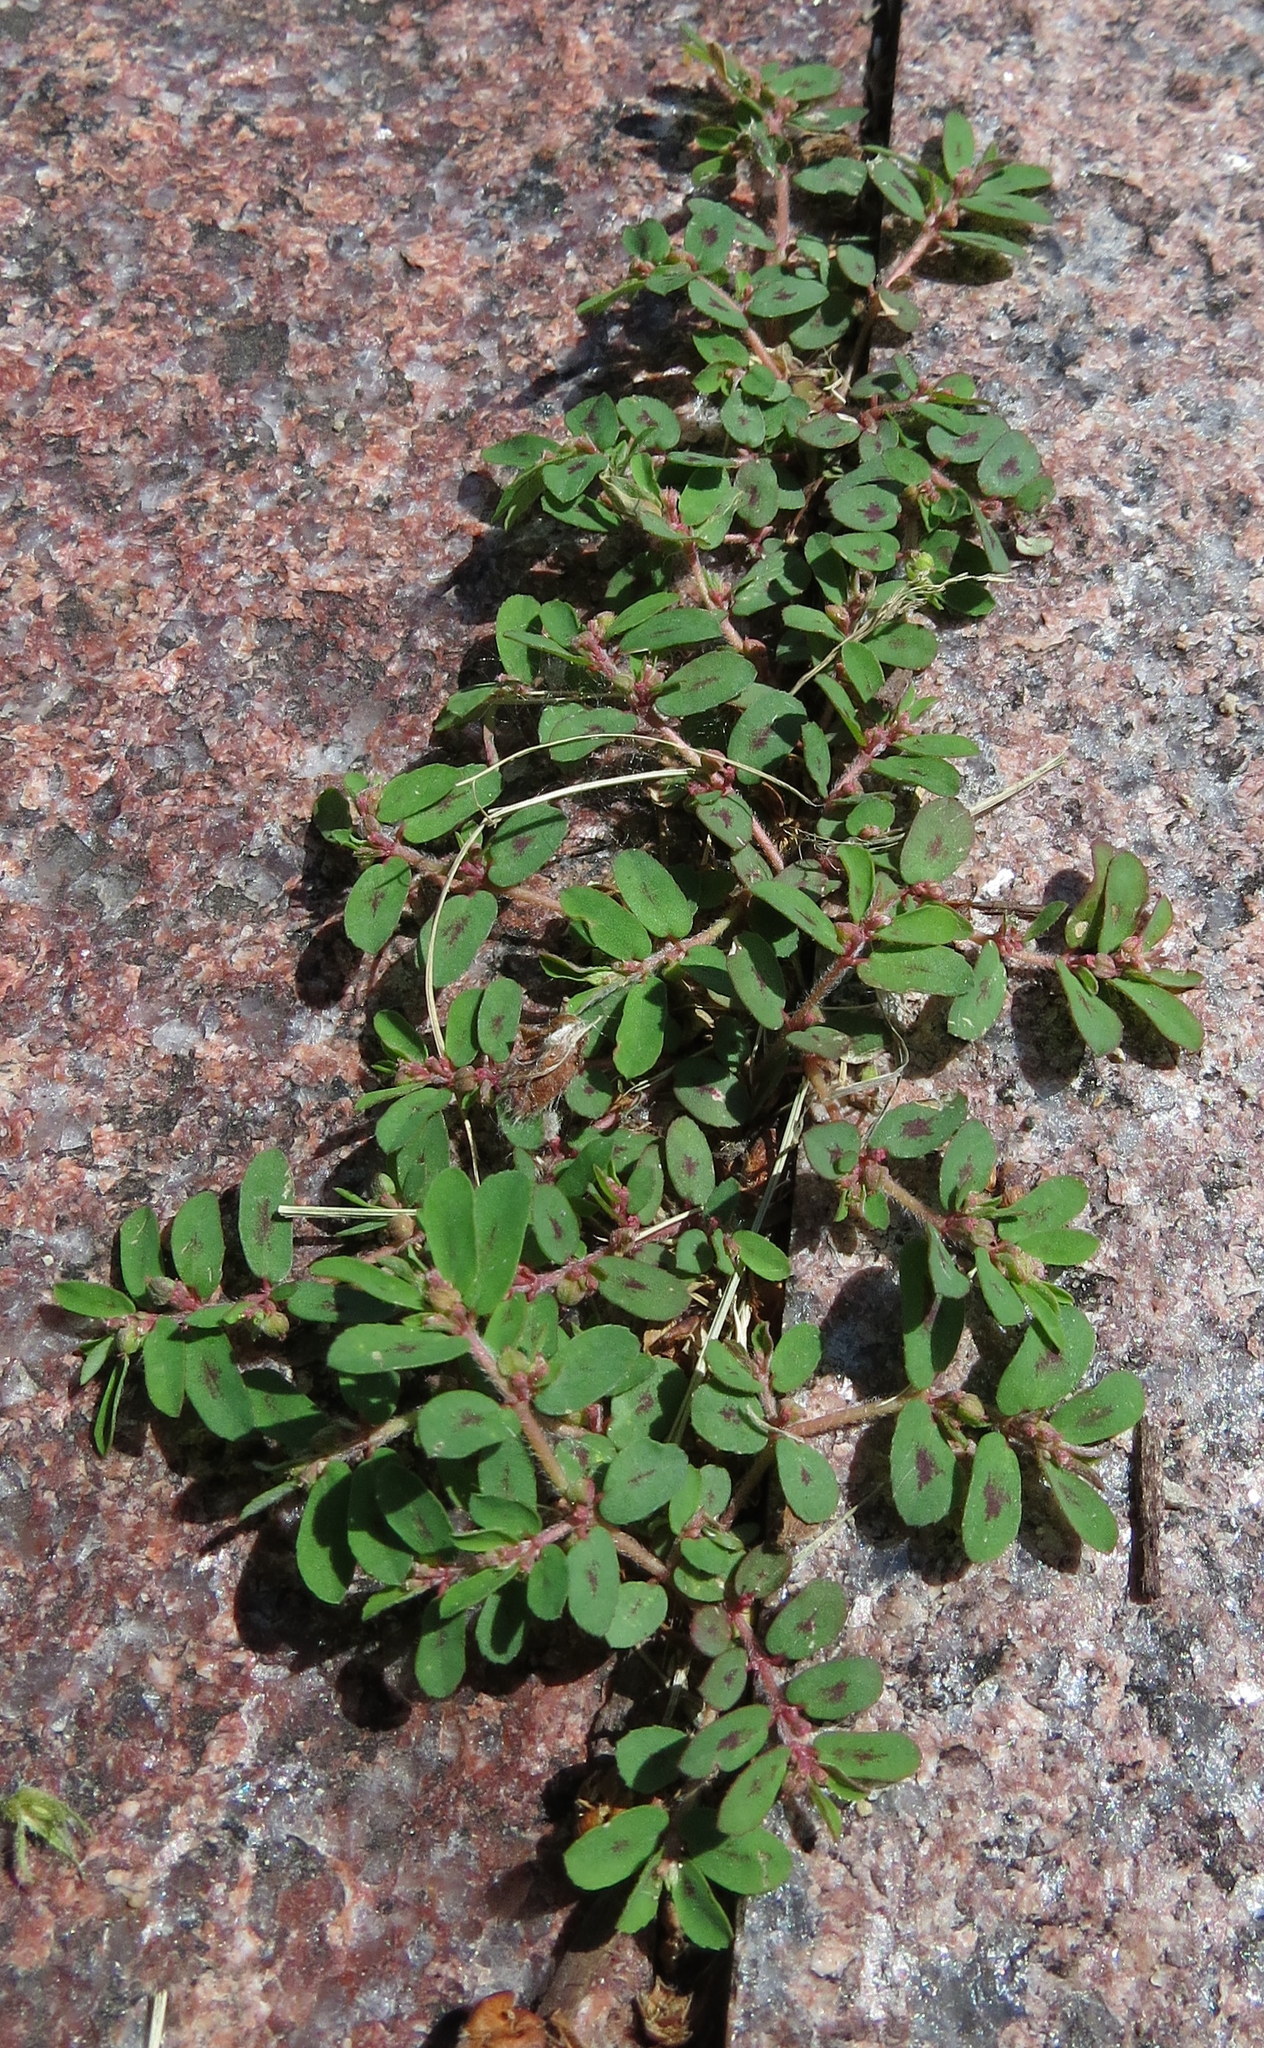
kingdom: Plantae
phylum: Tracheophyta
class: Magnoliopsida
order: Malpighiales
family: Euphorbiaceae
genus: Euphorbia
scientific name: Euphorbia maculata
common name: Spotted spurge
